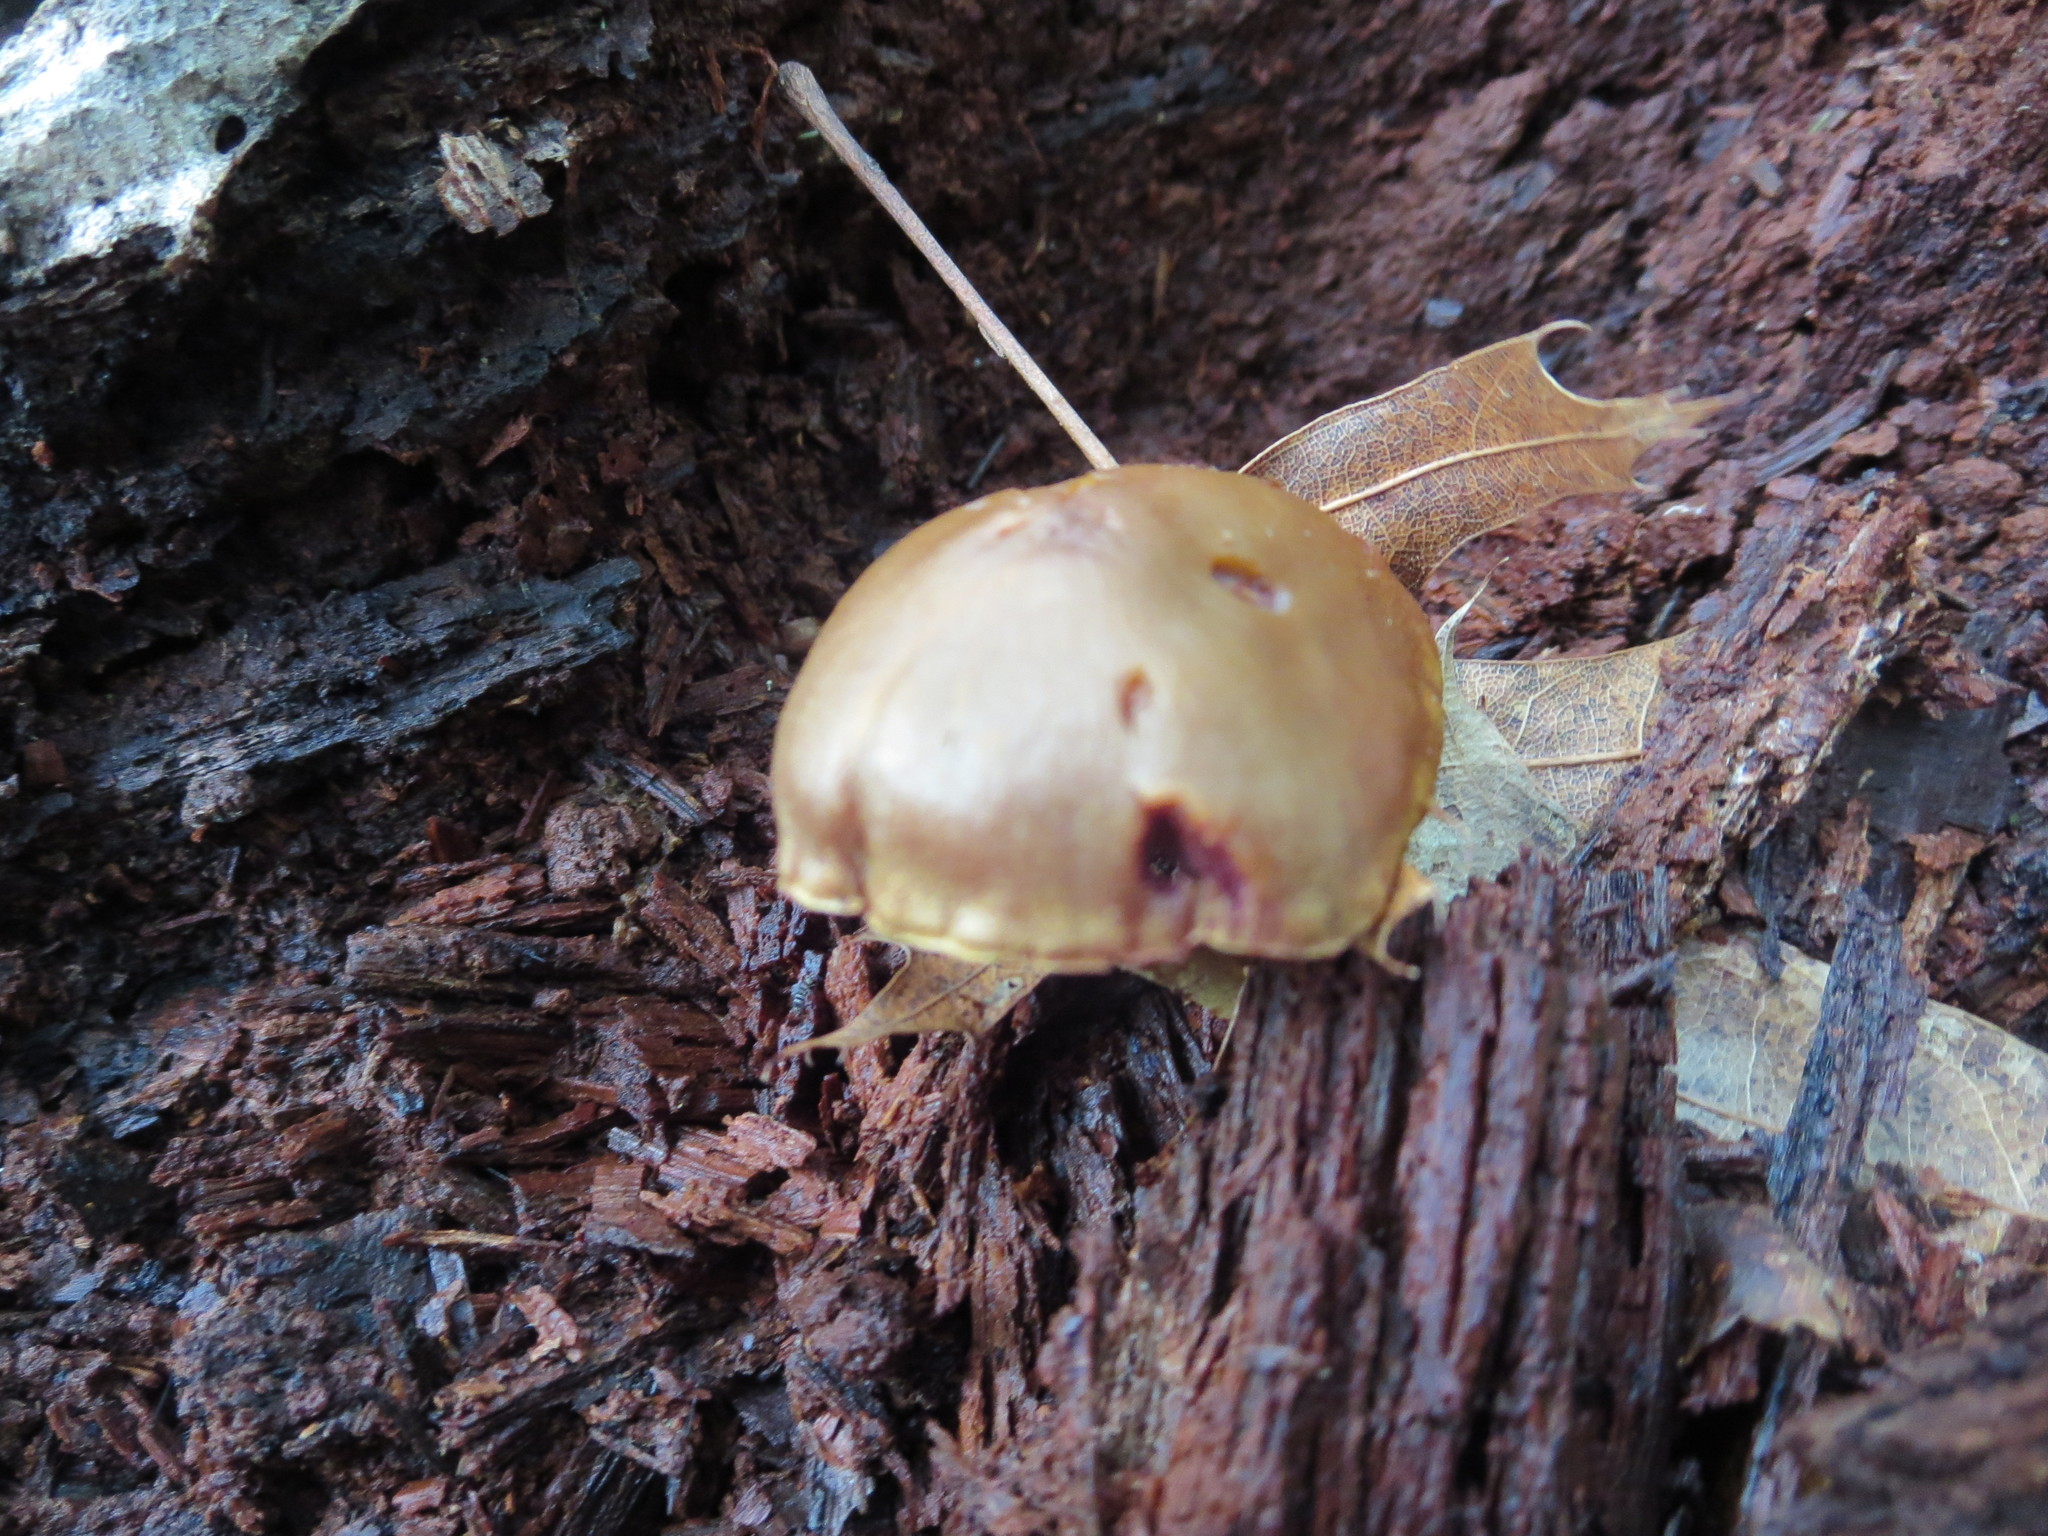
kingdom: Fungi
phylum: Basidiomycota
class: Agaricomycetes
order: Agaricales
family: Cortinariaceae
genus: Cortinarius
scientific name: Cortinarius semisanguineus
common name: Surprise webcap
